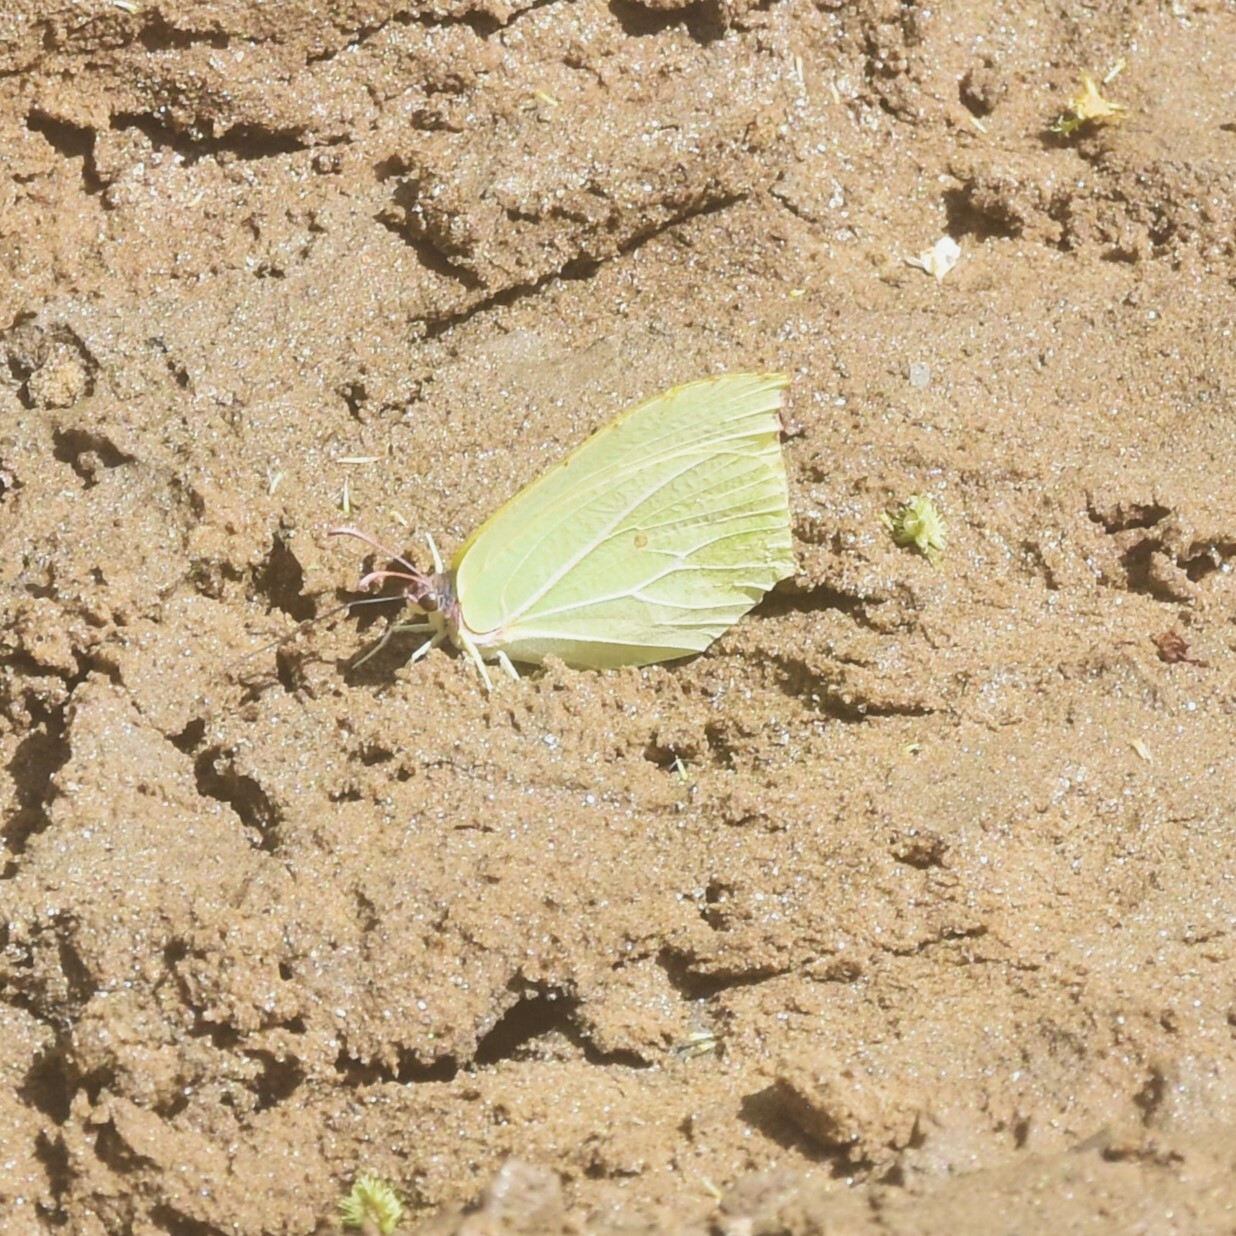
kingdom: Animalia
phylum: Arthropoda
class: Insecta
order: Lepidoptera
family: Pieridae
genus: Gonepteryx
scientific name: Gonepteryx
